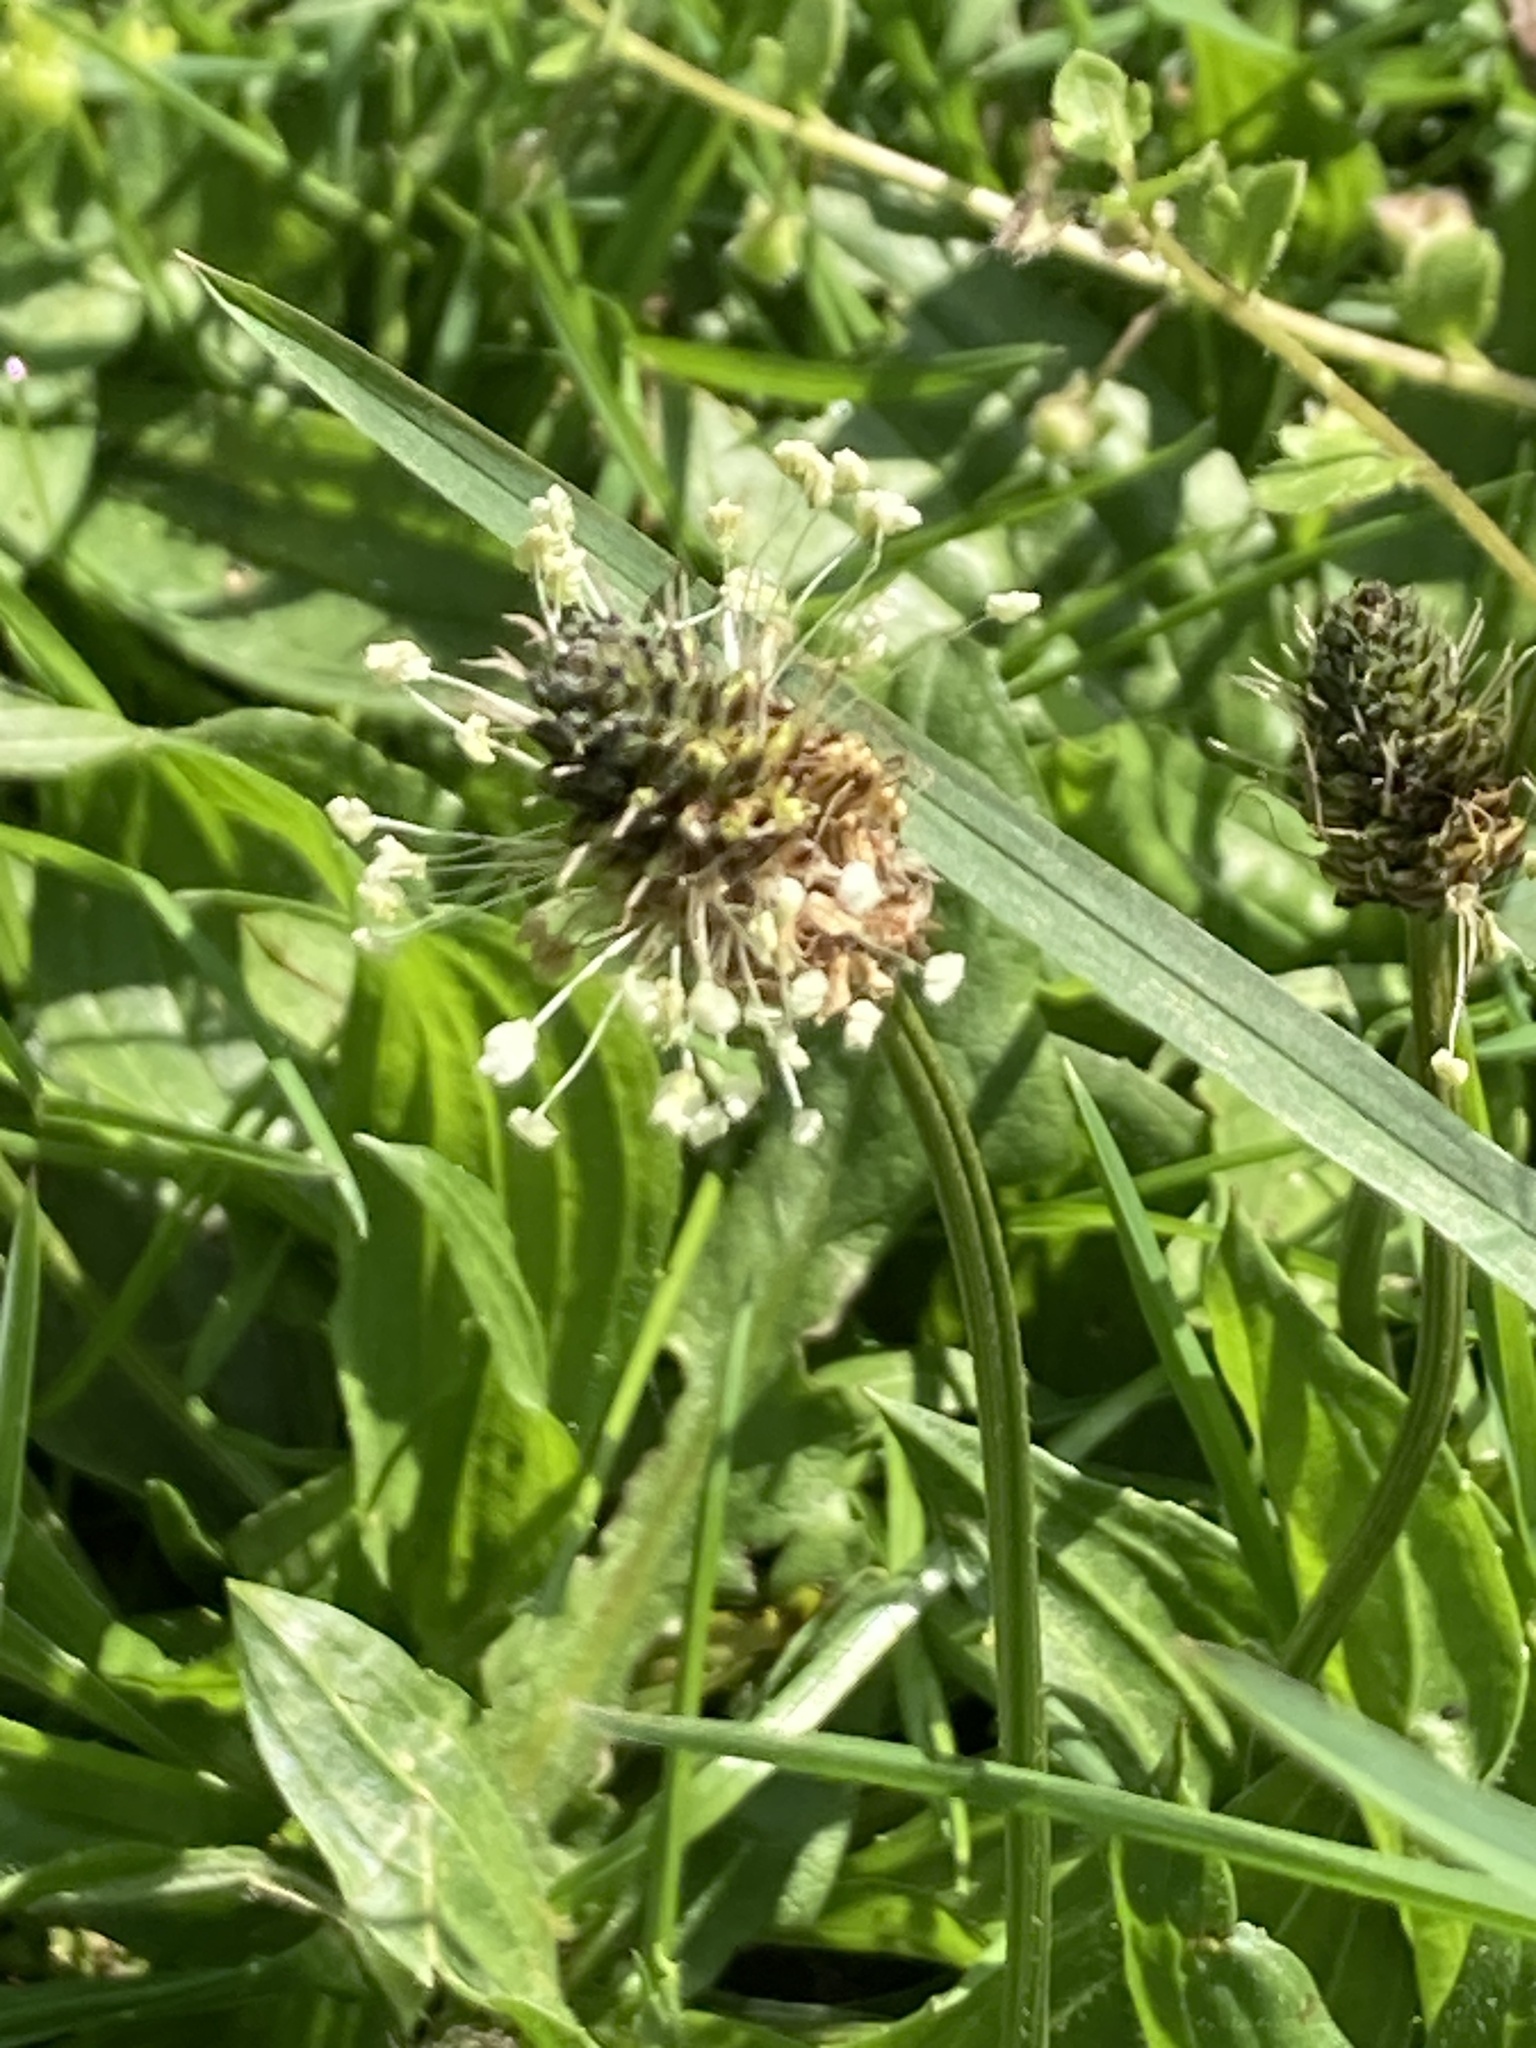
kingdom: Plantae
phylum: Tracheophyta
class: Magnoliopsida
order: Lamiales
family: Plantaginaceae
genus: Plantago
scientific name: Plantago lanceolata
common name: Ribwort plantain
